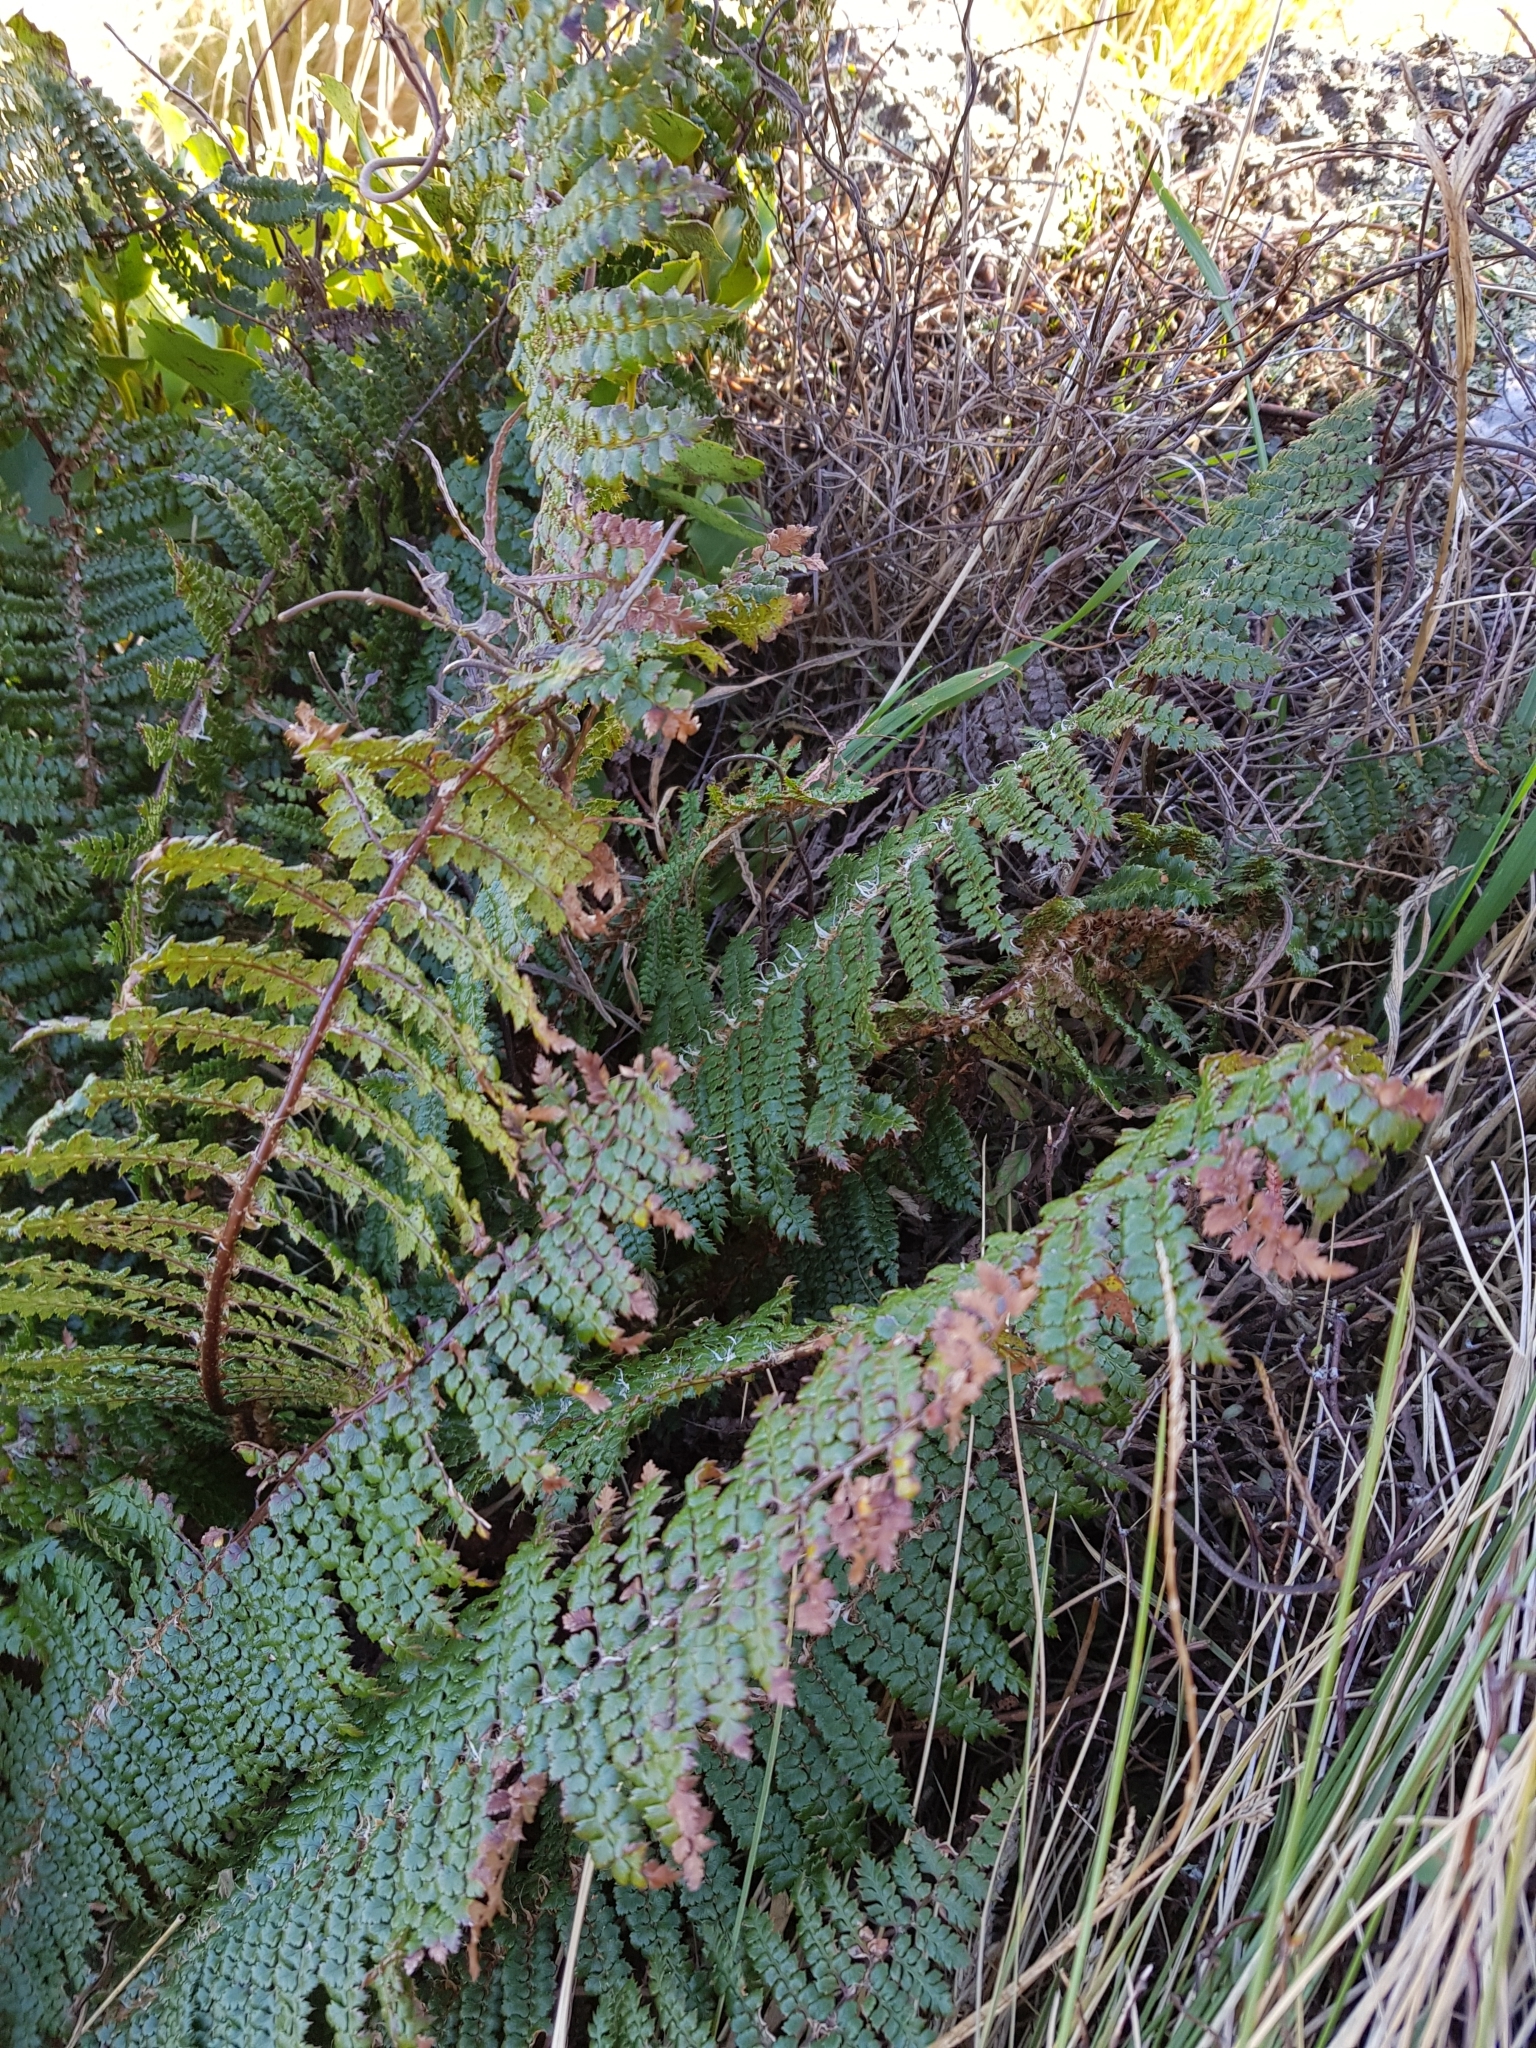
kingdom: Plantae
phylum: Tracheophyta
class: Polypodiopsida
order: Polypodiales
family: Dryopteridaceae
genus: Polystichum
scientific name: Polystichum vestitum
